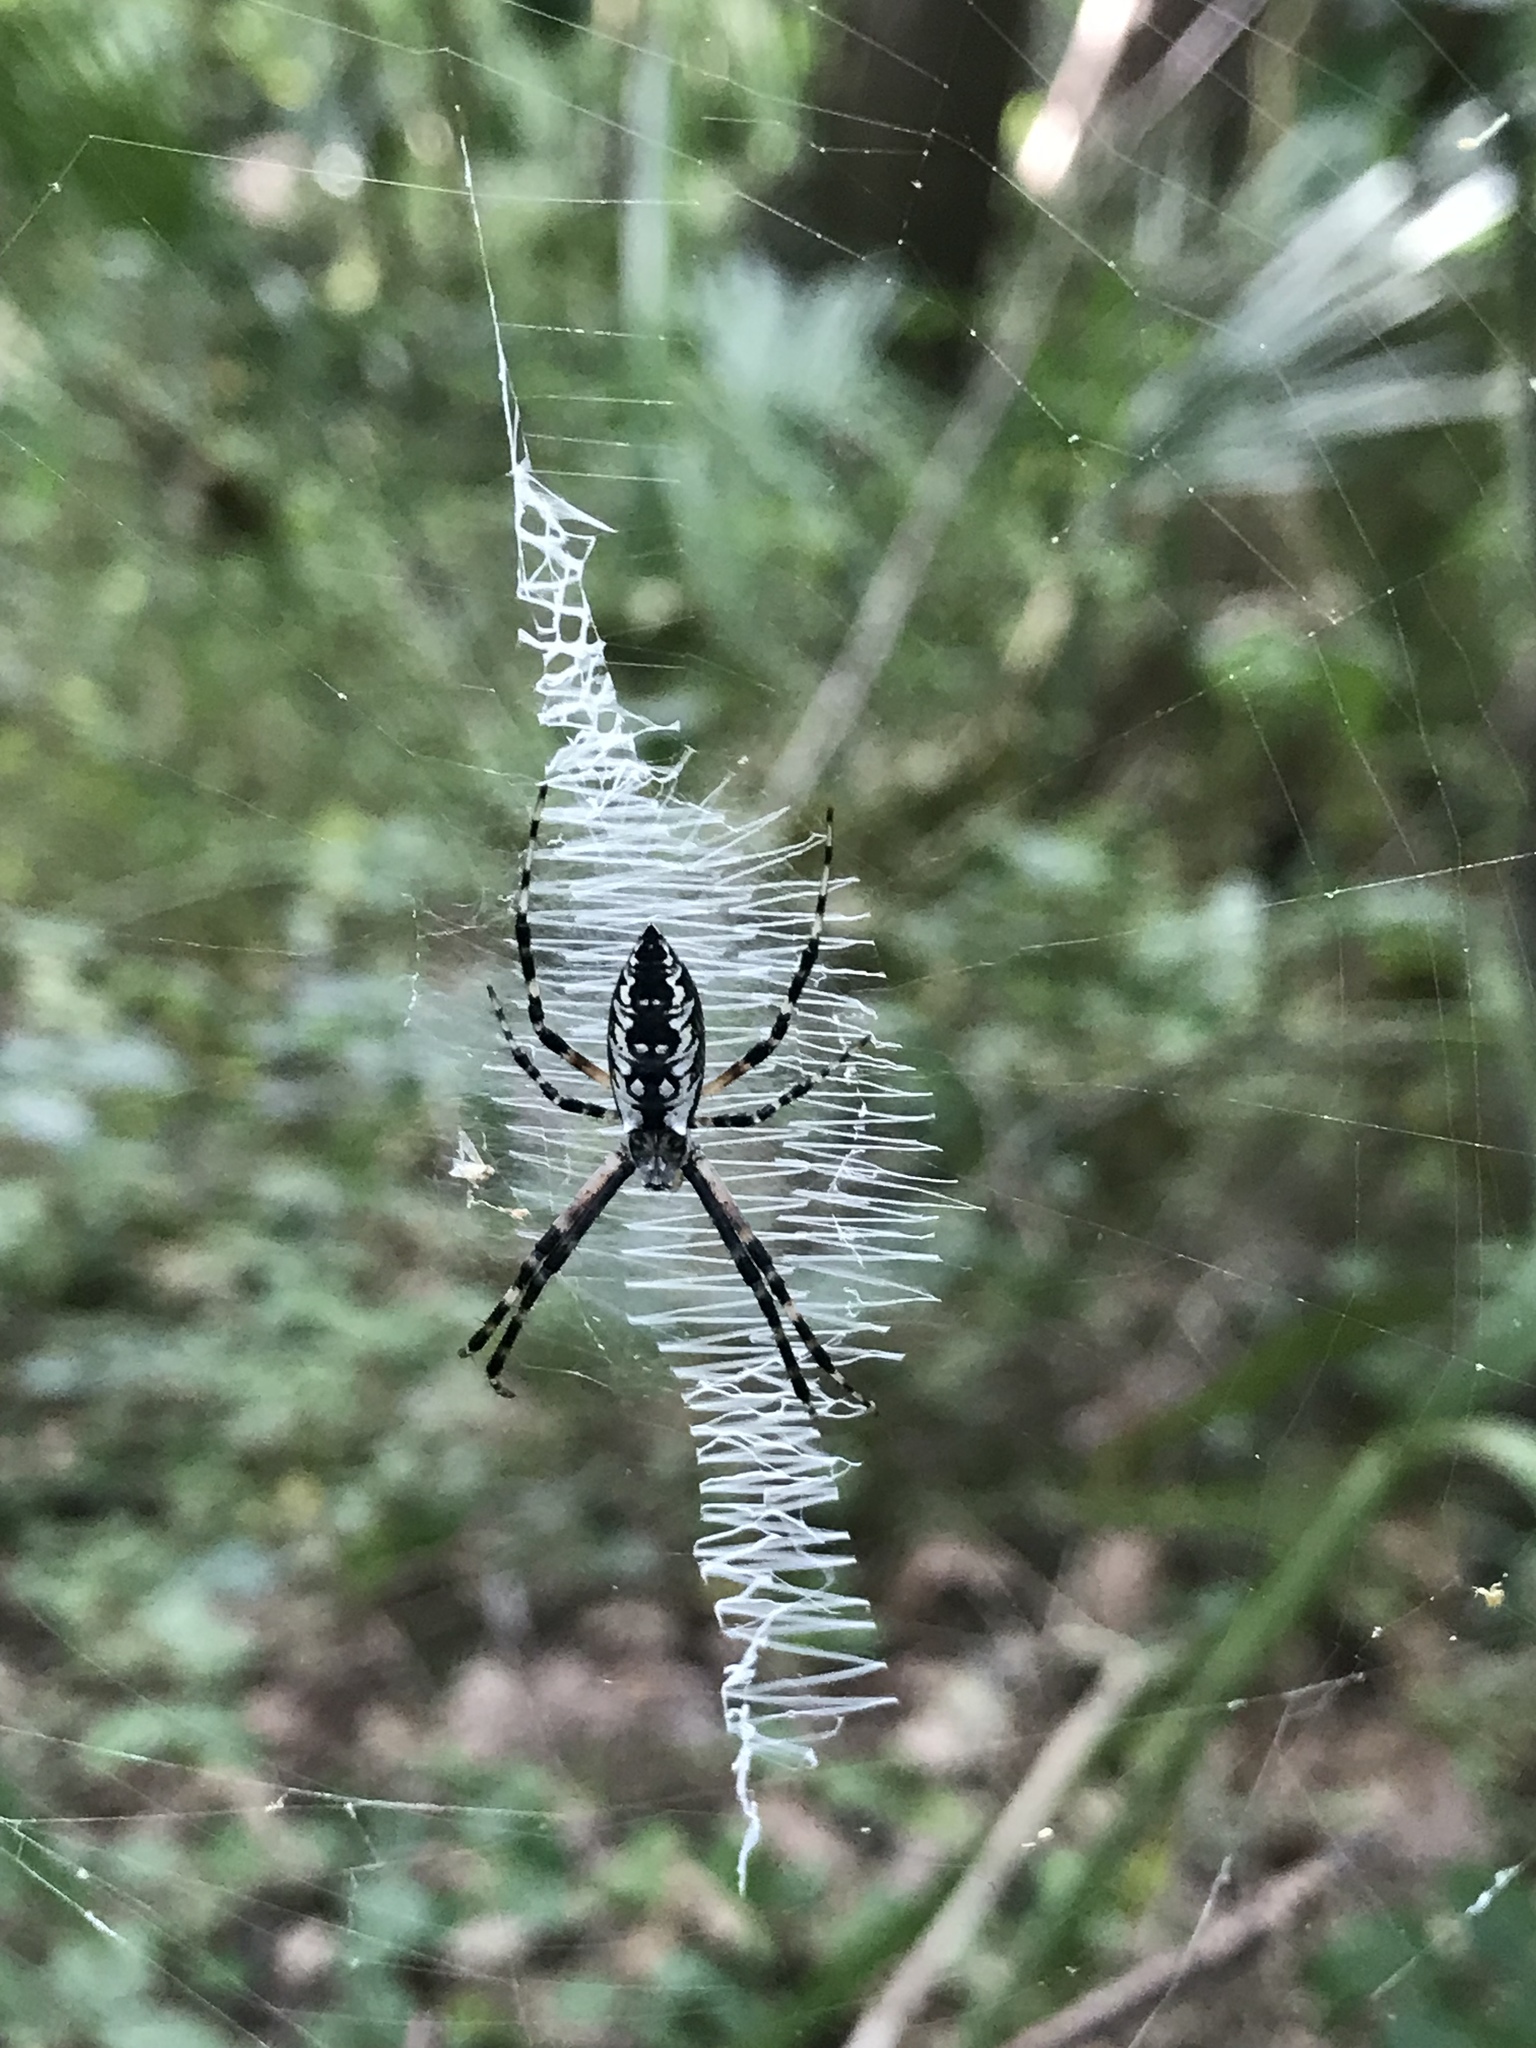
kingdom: Animalia
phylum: Arthropoda
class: Arachnida
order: Araneae
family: Araneidae
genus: Argiope
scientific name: Argiope aurantia
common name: Orb weavers
